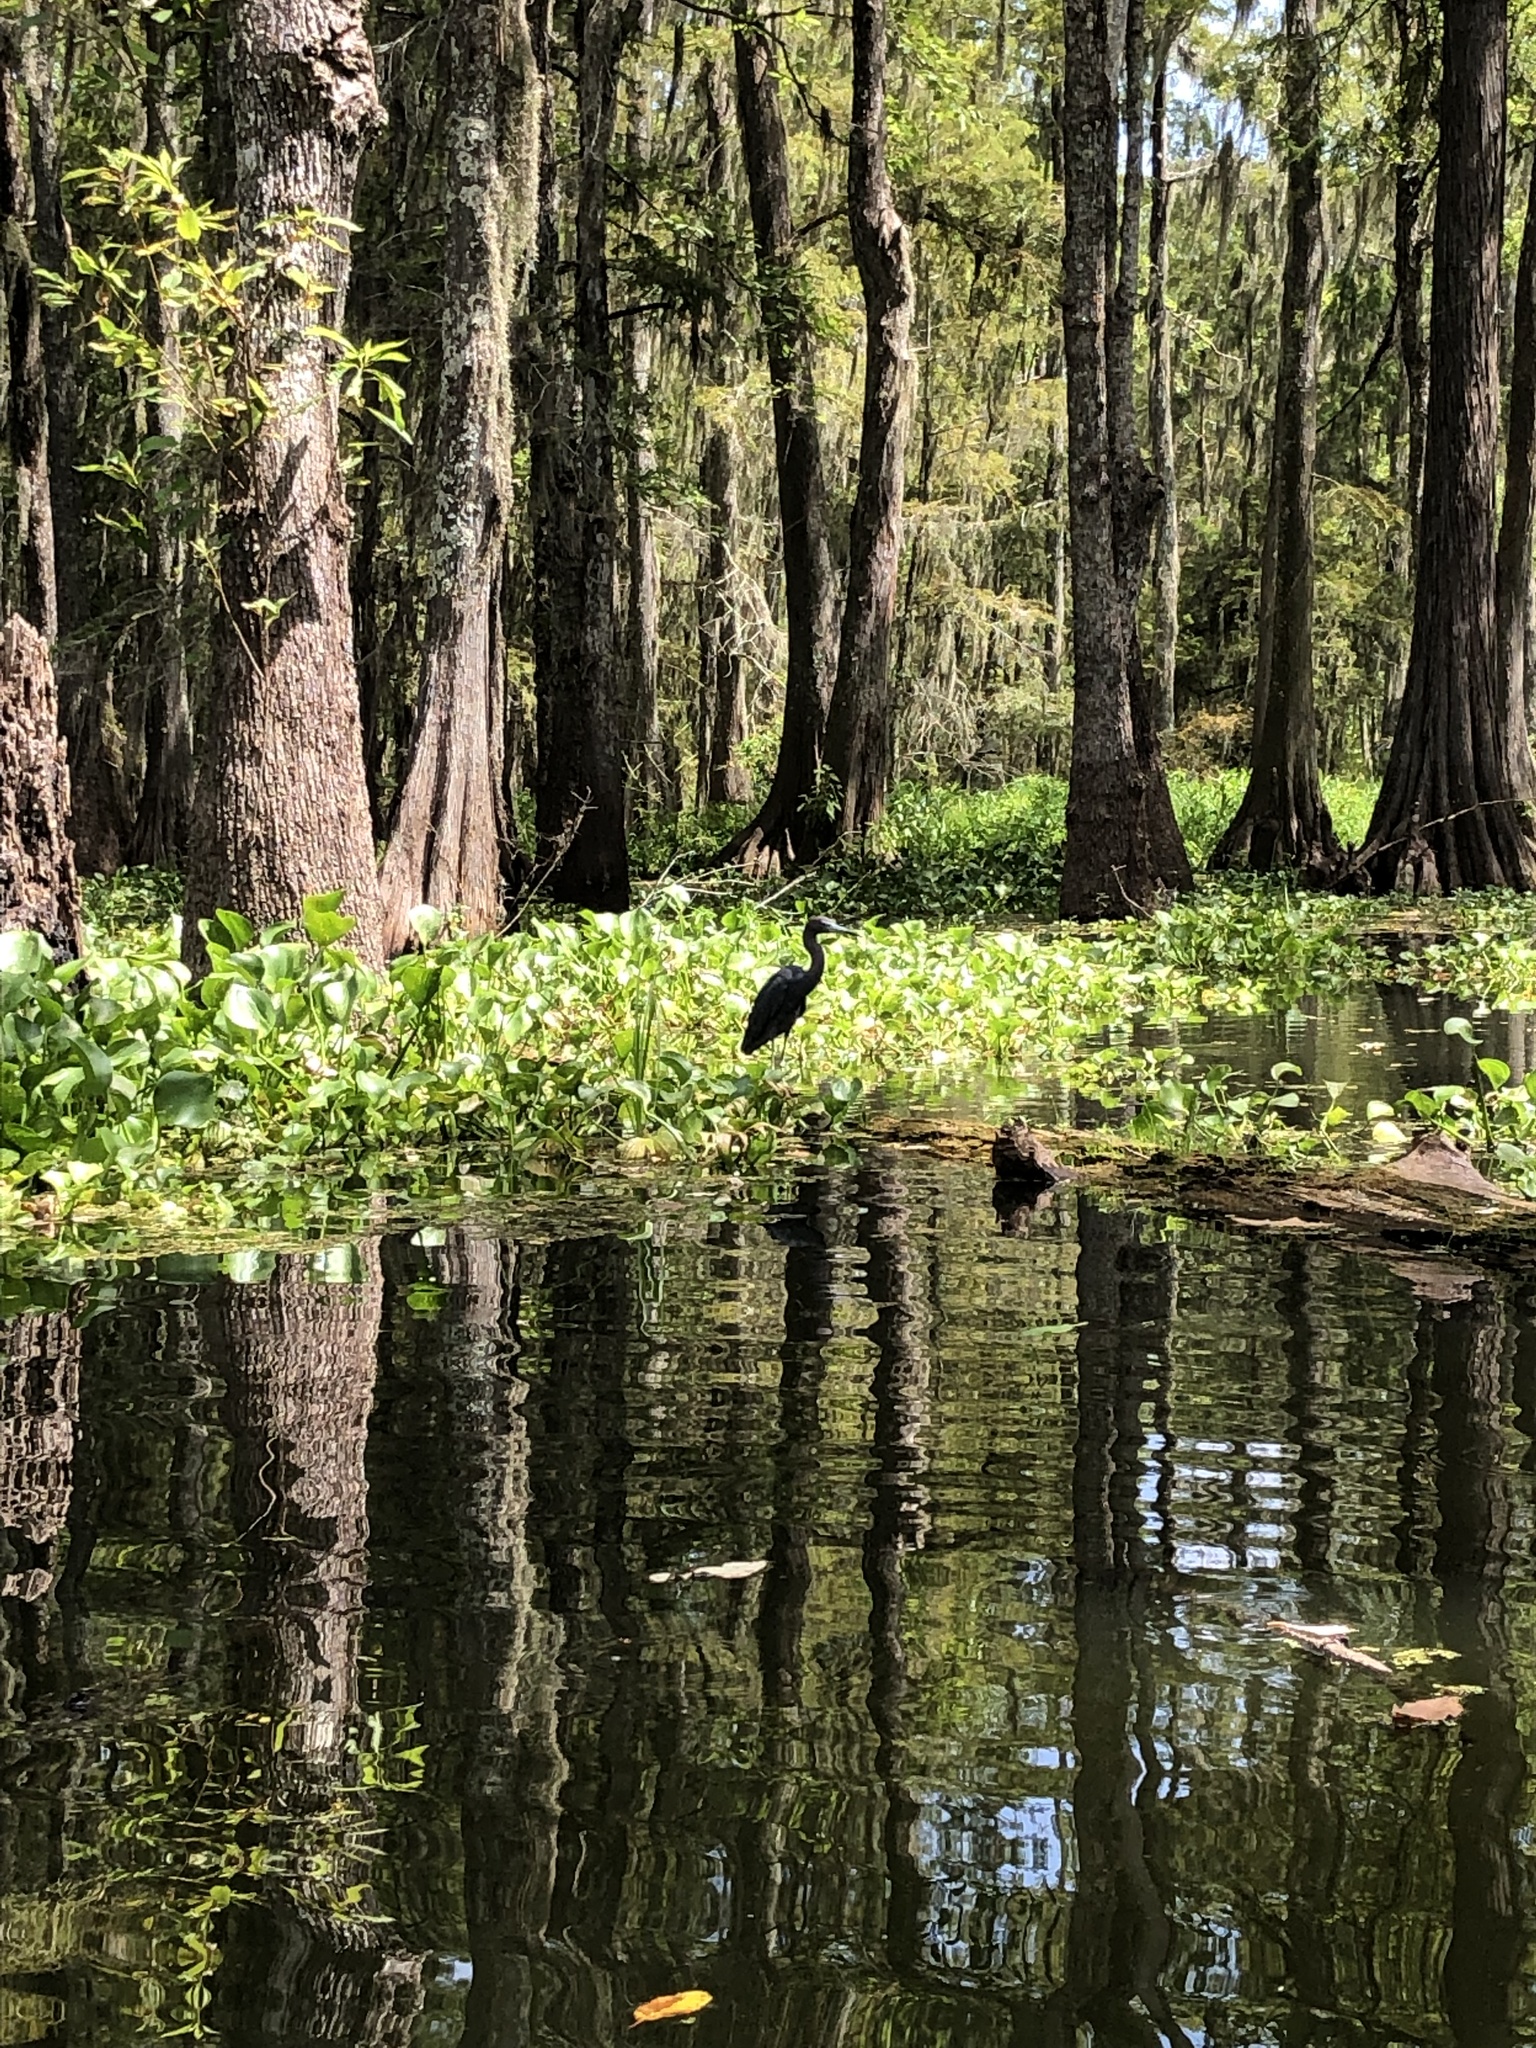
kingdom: Animalia
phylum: Chordata
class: Aves
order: Pelecaniformes
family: Ardeidae
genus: Egretta
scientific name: Egretta caerulea
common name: Little blue heron
